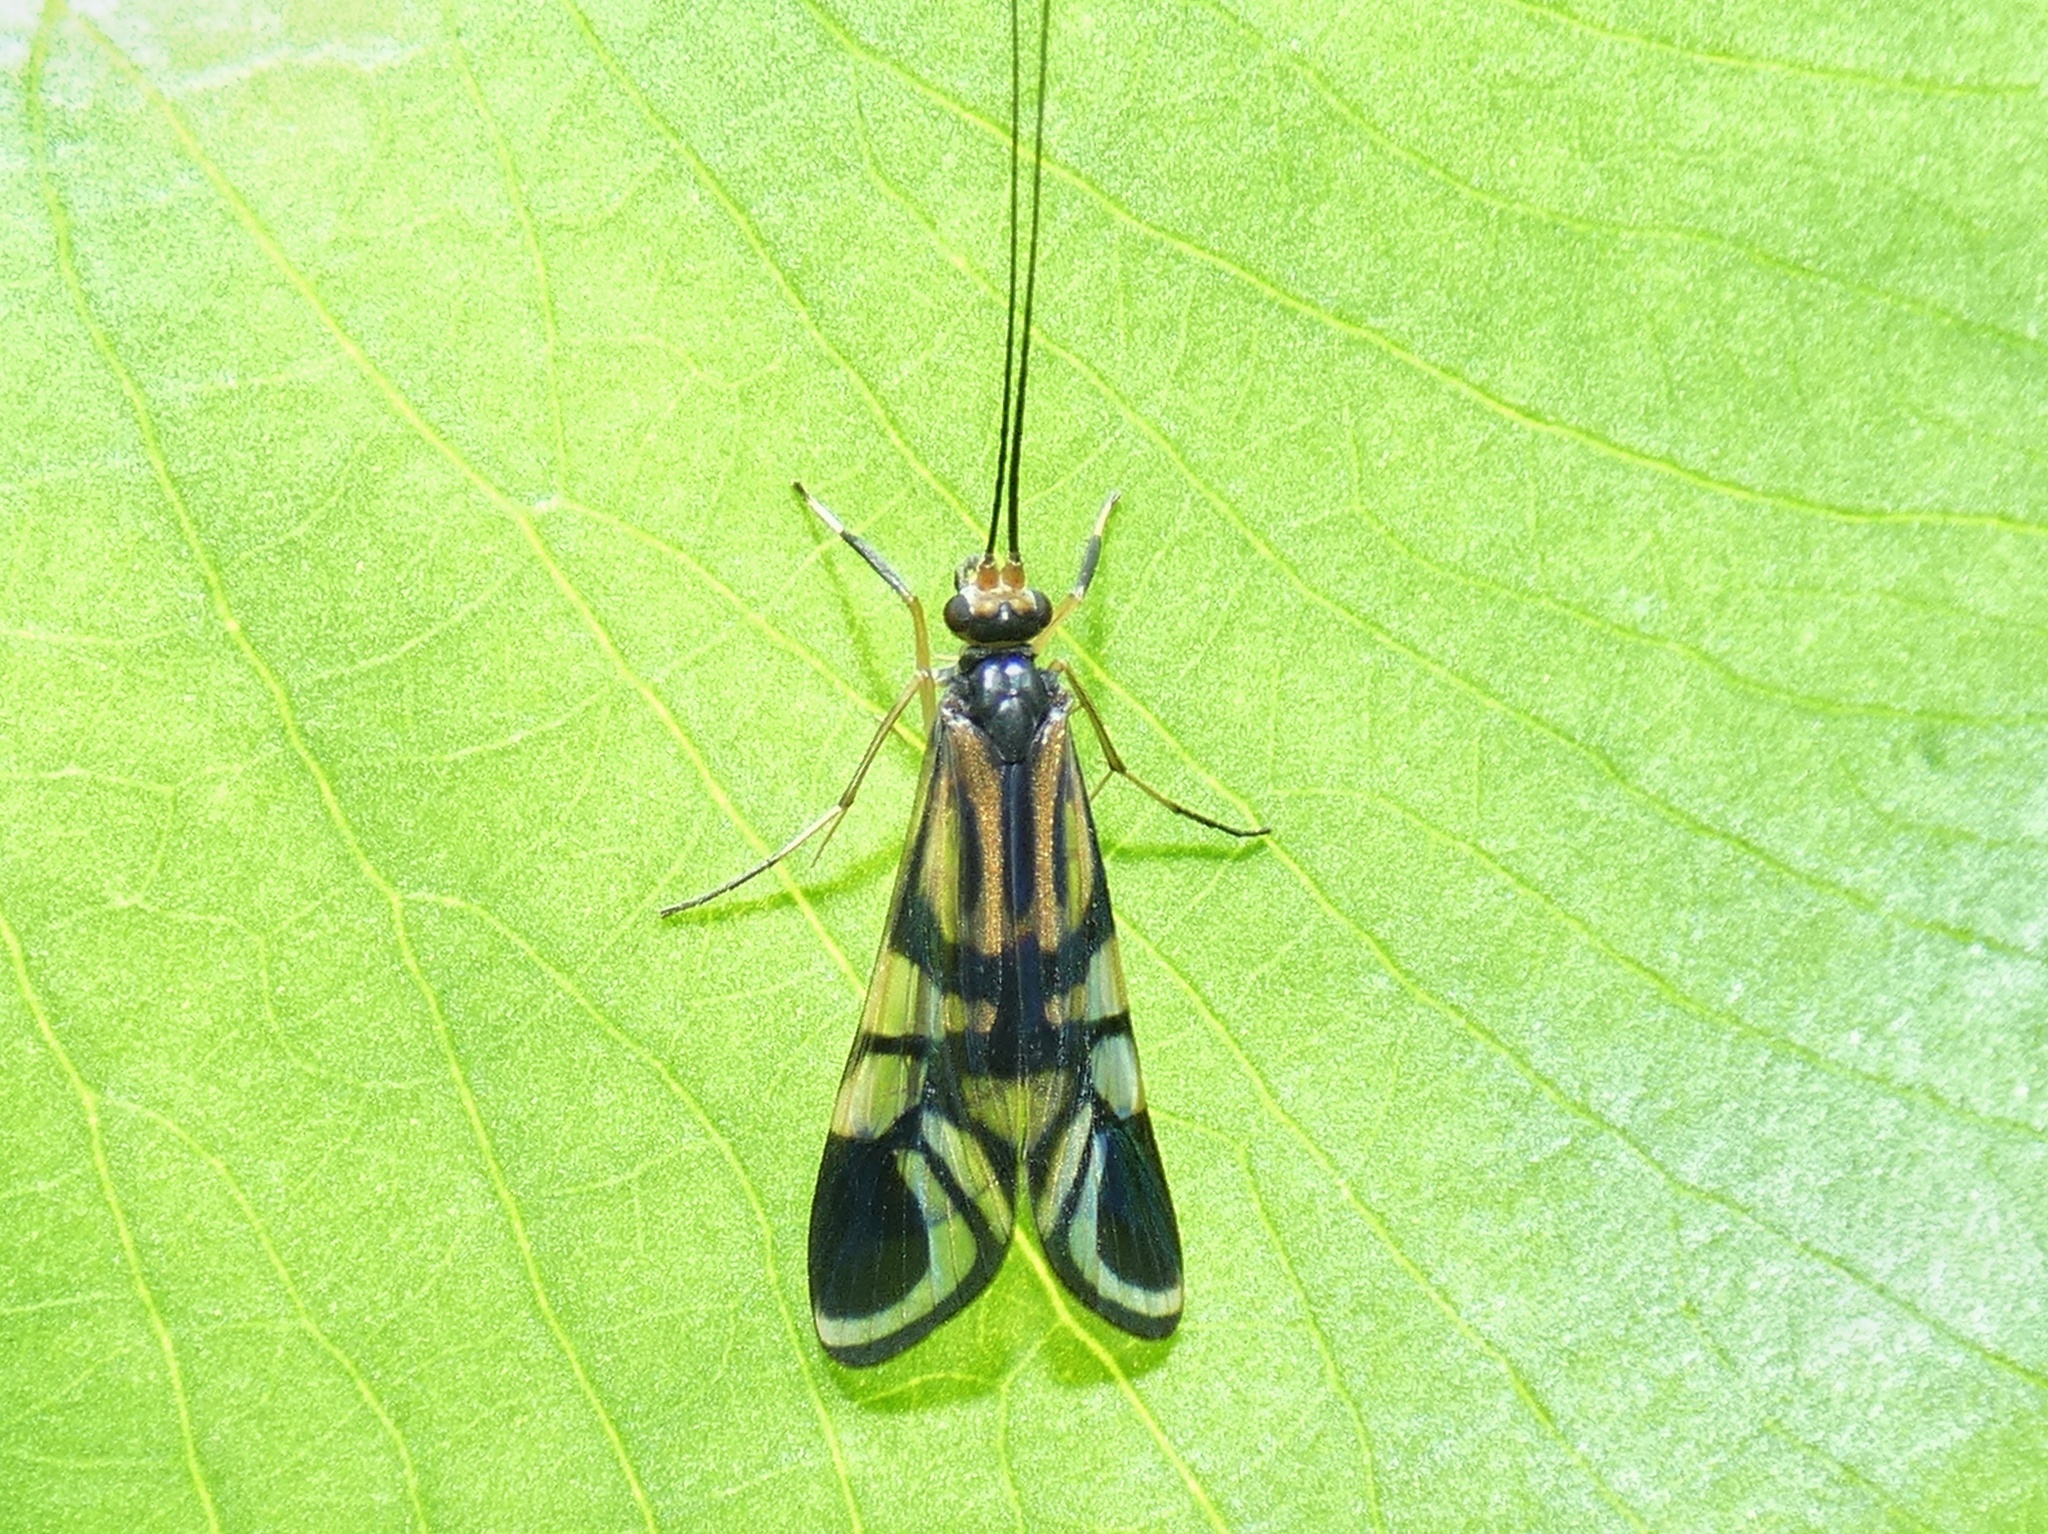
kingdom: Animalia
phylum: Arthropoda
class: Insecta
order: Trichoptera
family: Hydropsychidae
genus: Macrostemum
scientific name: Macrostemum ulmeri
